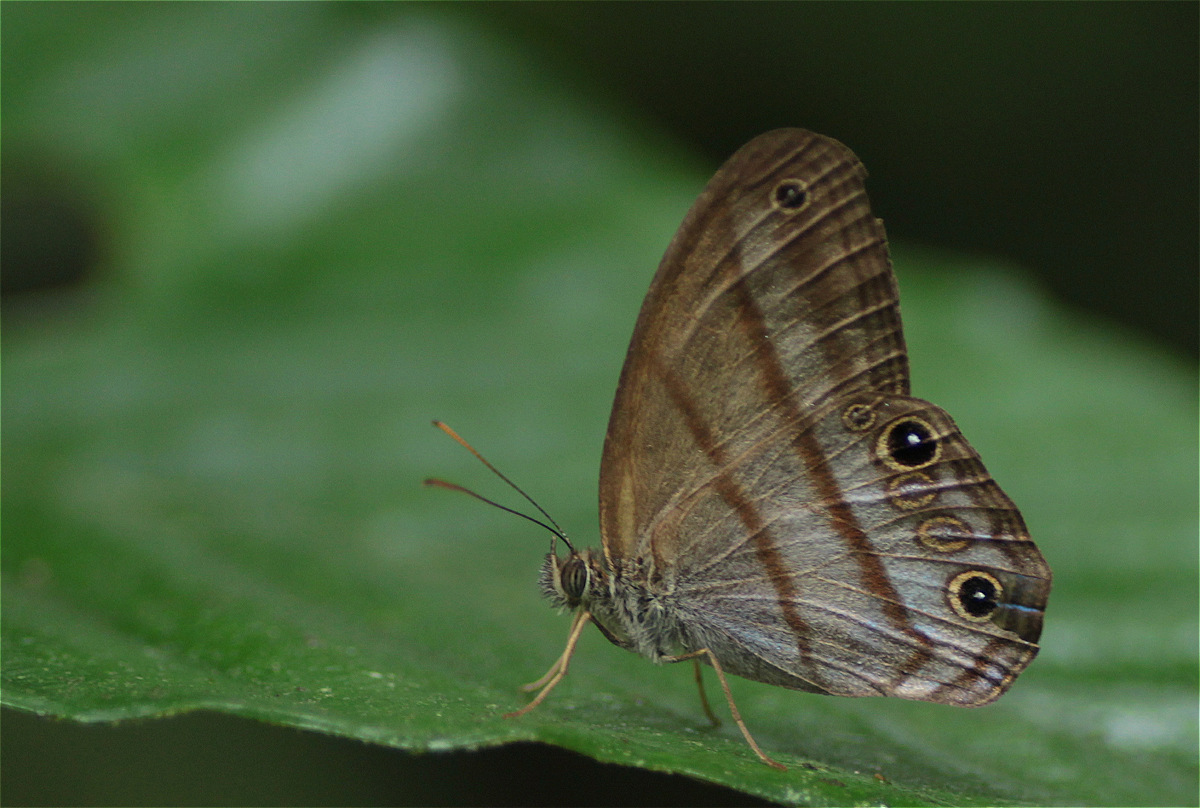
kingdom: Animalia
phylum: Arthropoda
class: Insecta
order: Lepidoptera
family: Nymphalidae
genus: Amiga
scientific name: Amiga arnaca
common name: Blue-topped satyr
